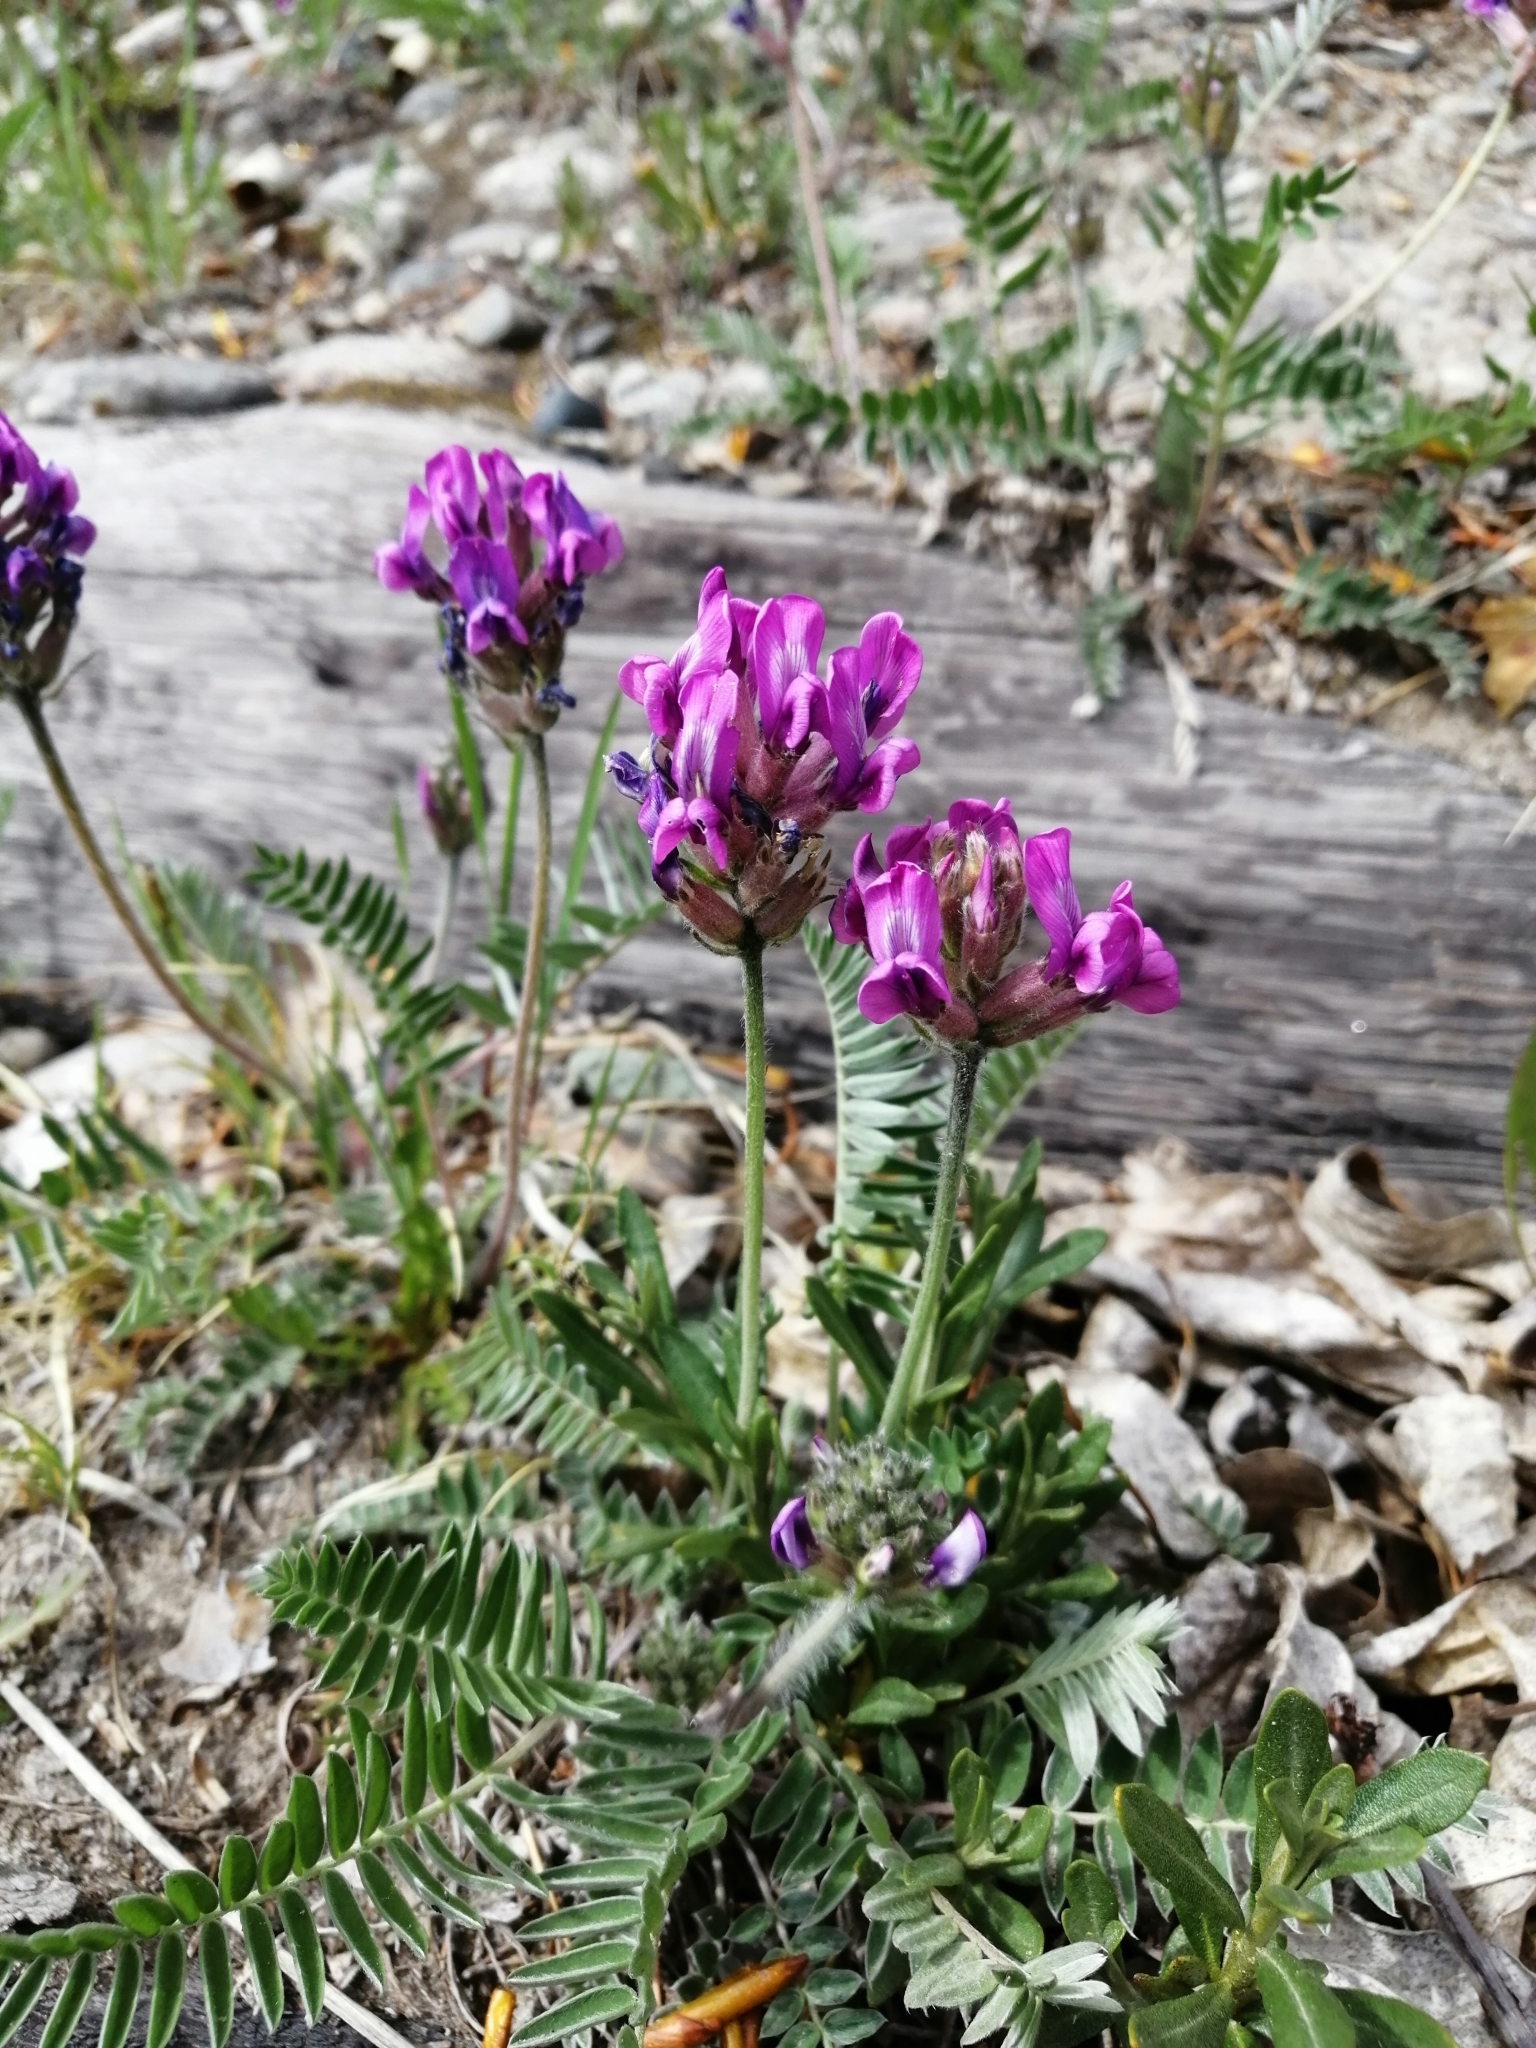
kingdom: Plantae
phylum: Tracheophyta
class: Magnoliopsida
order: Fabales
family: Fabaceae
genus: Oxytropis
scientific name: Oxytropis strobilacea
